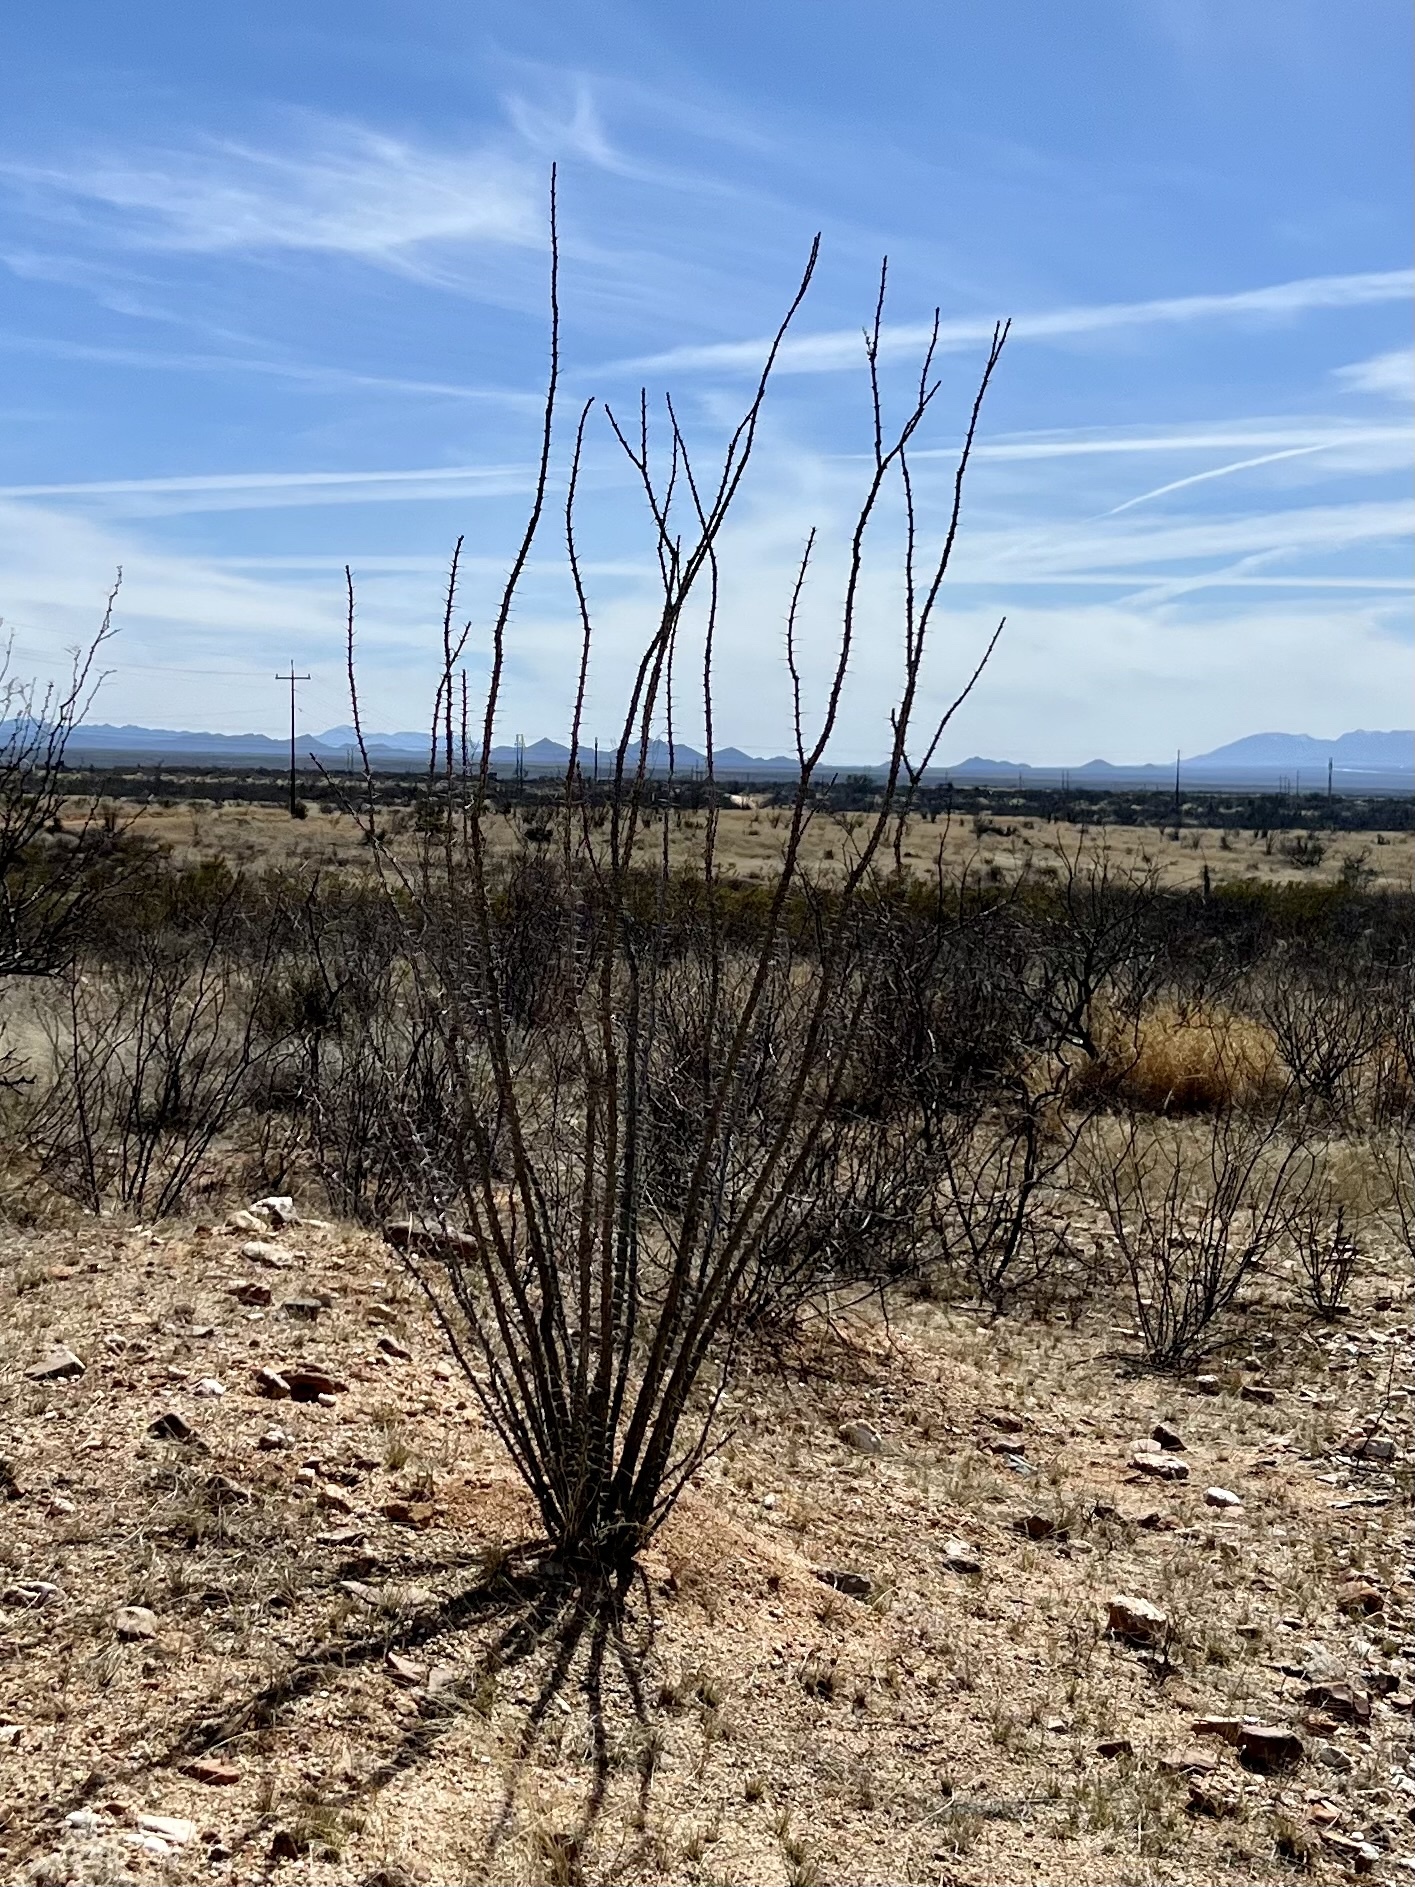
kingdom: Plantae
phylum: Tracheophyta
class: Magnoliopsida
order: Ericales
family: Fouquieriaceae
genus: Fouquieria
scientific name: Fouquieria splendens
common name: Vine-cactus
